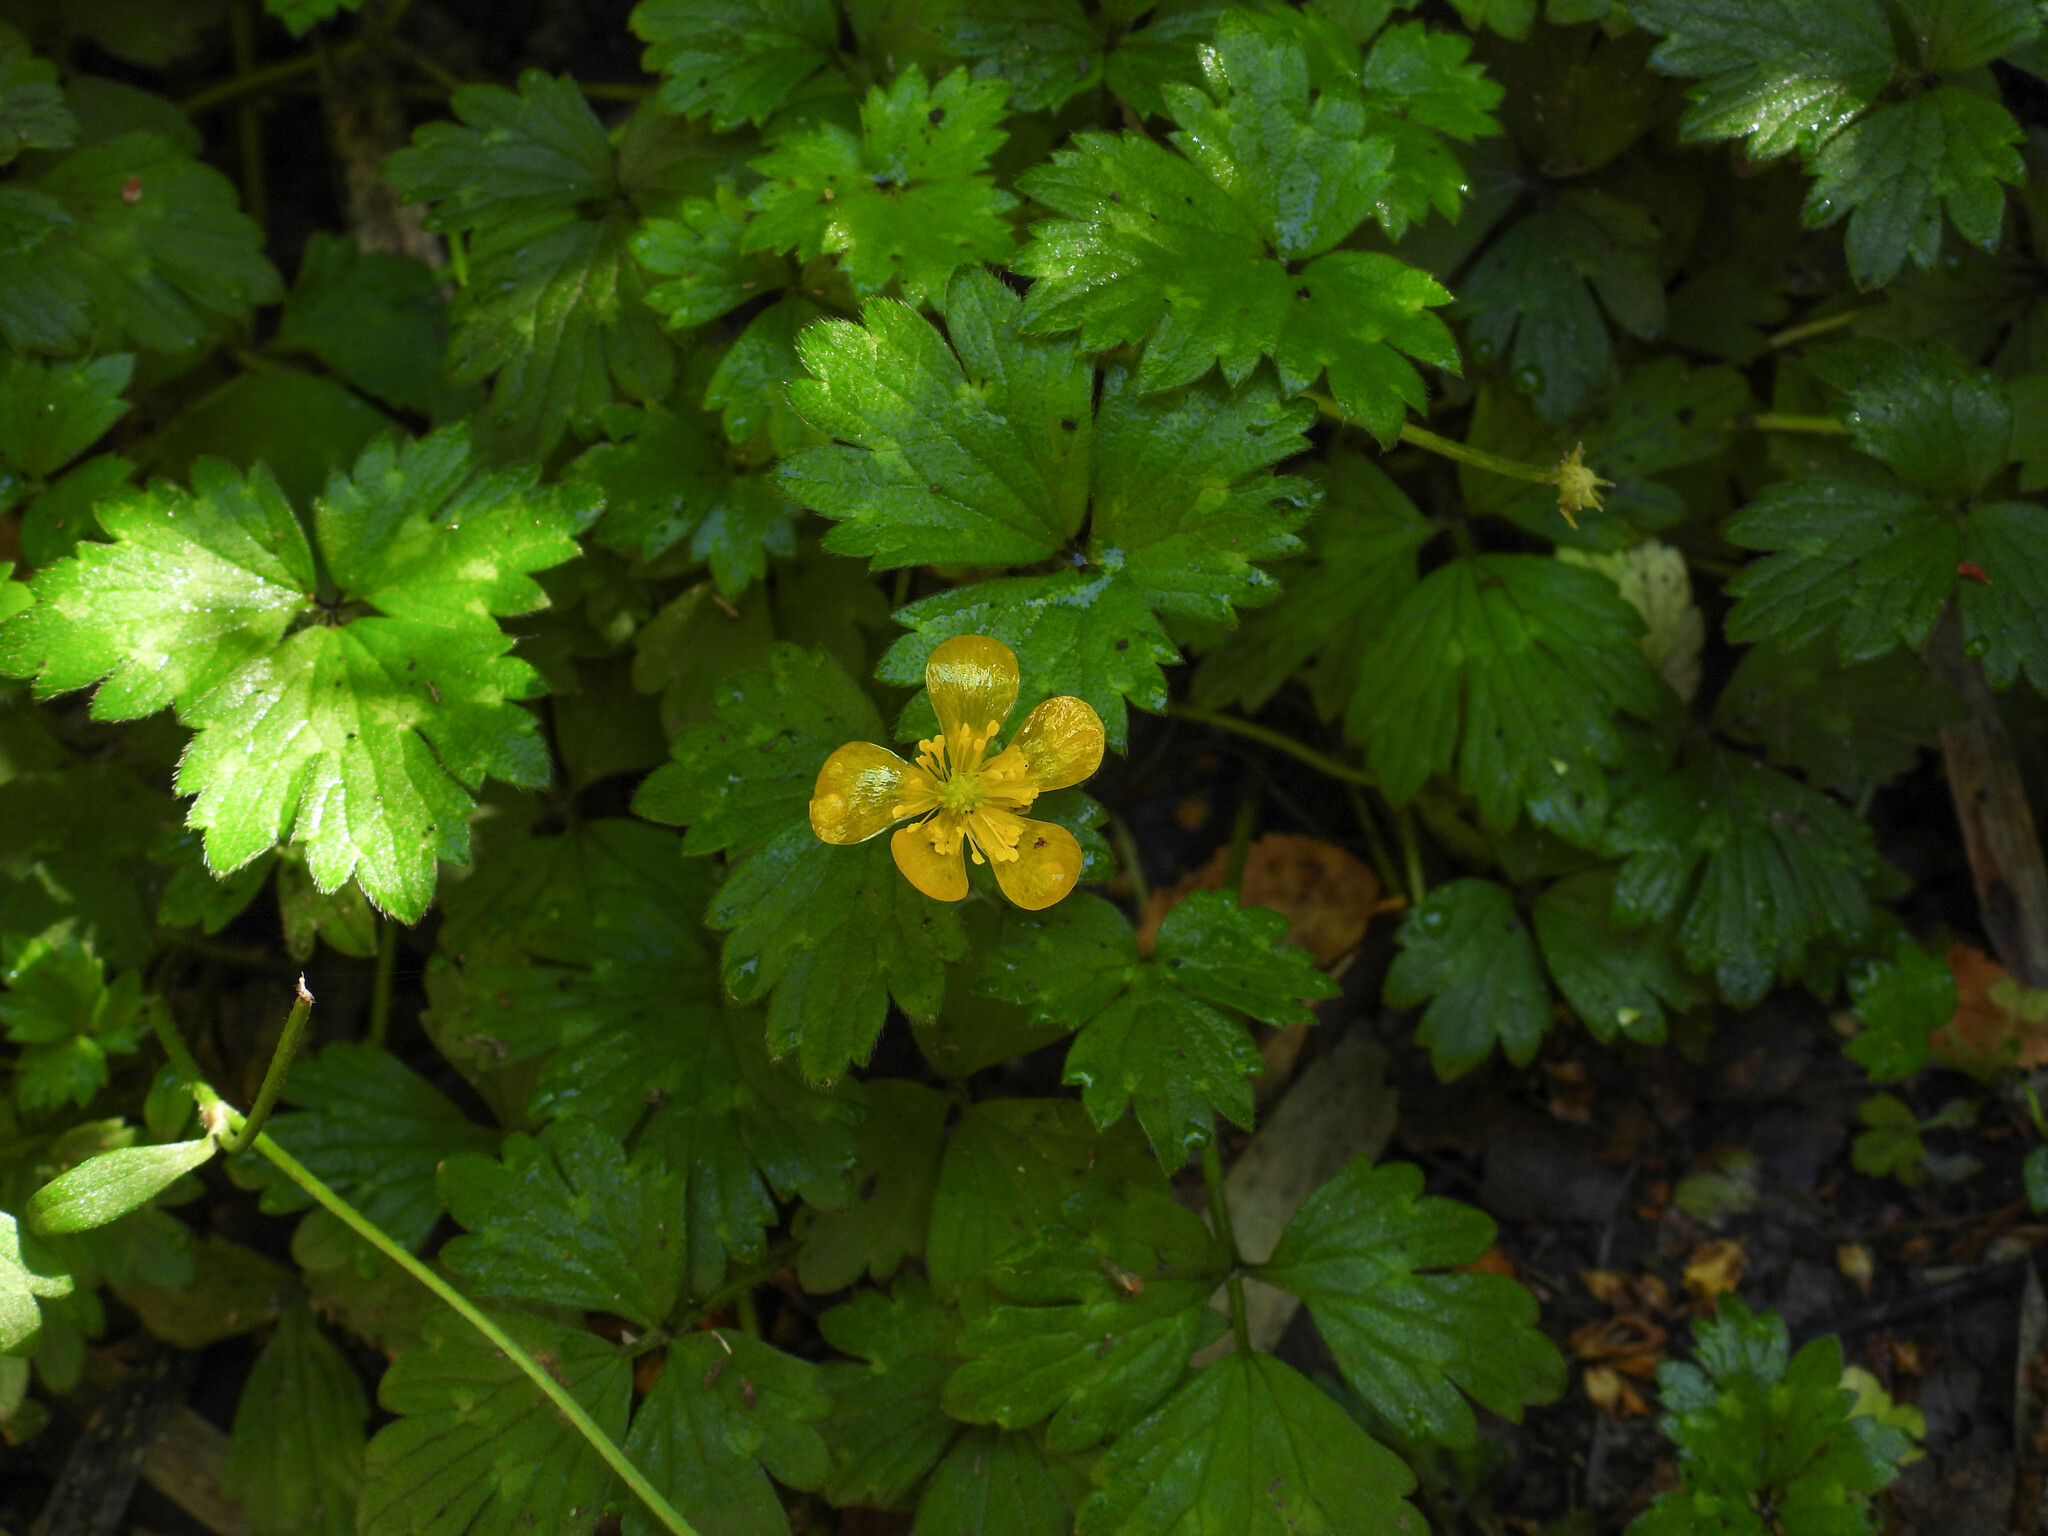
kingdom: Plantae
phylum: Tracheophyta
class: Magnoliopsida
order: Ranunculales
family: Ranunculaceae
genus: Ranunculus
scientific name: Ranunculus repens
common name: Creeping buttercup
